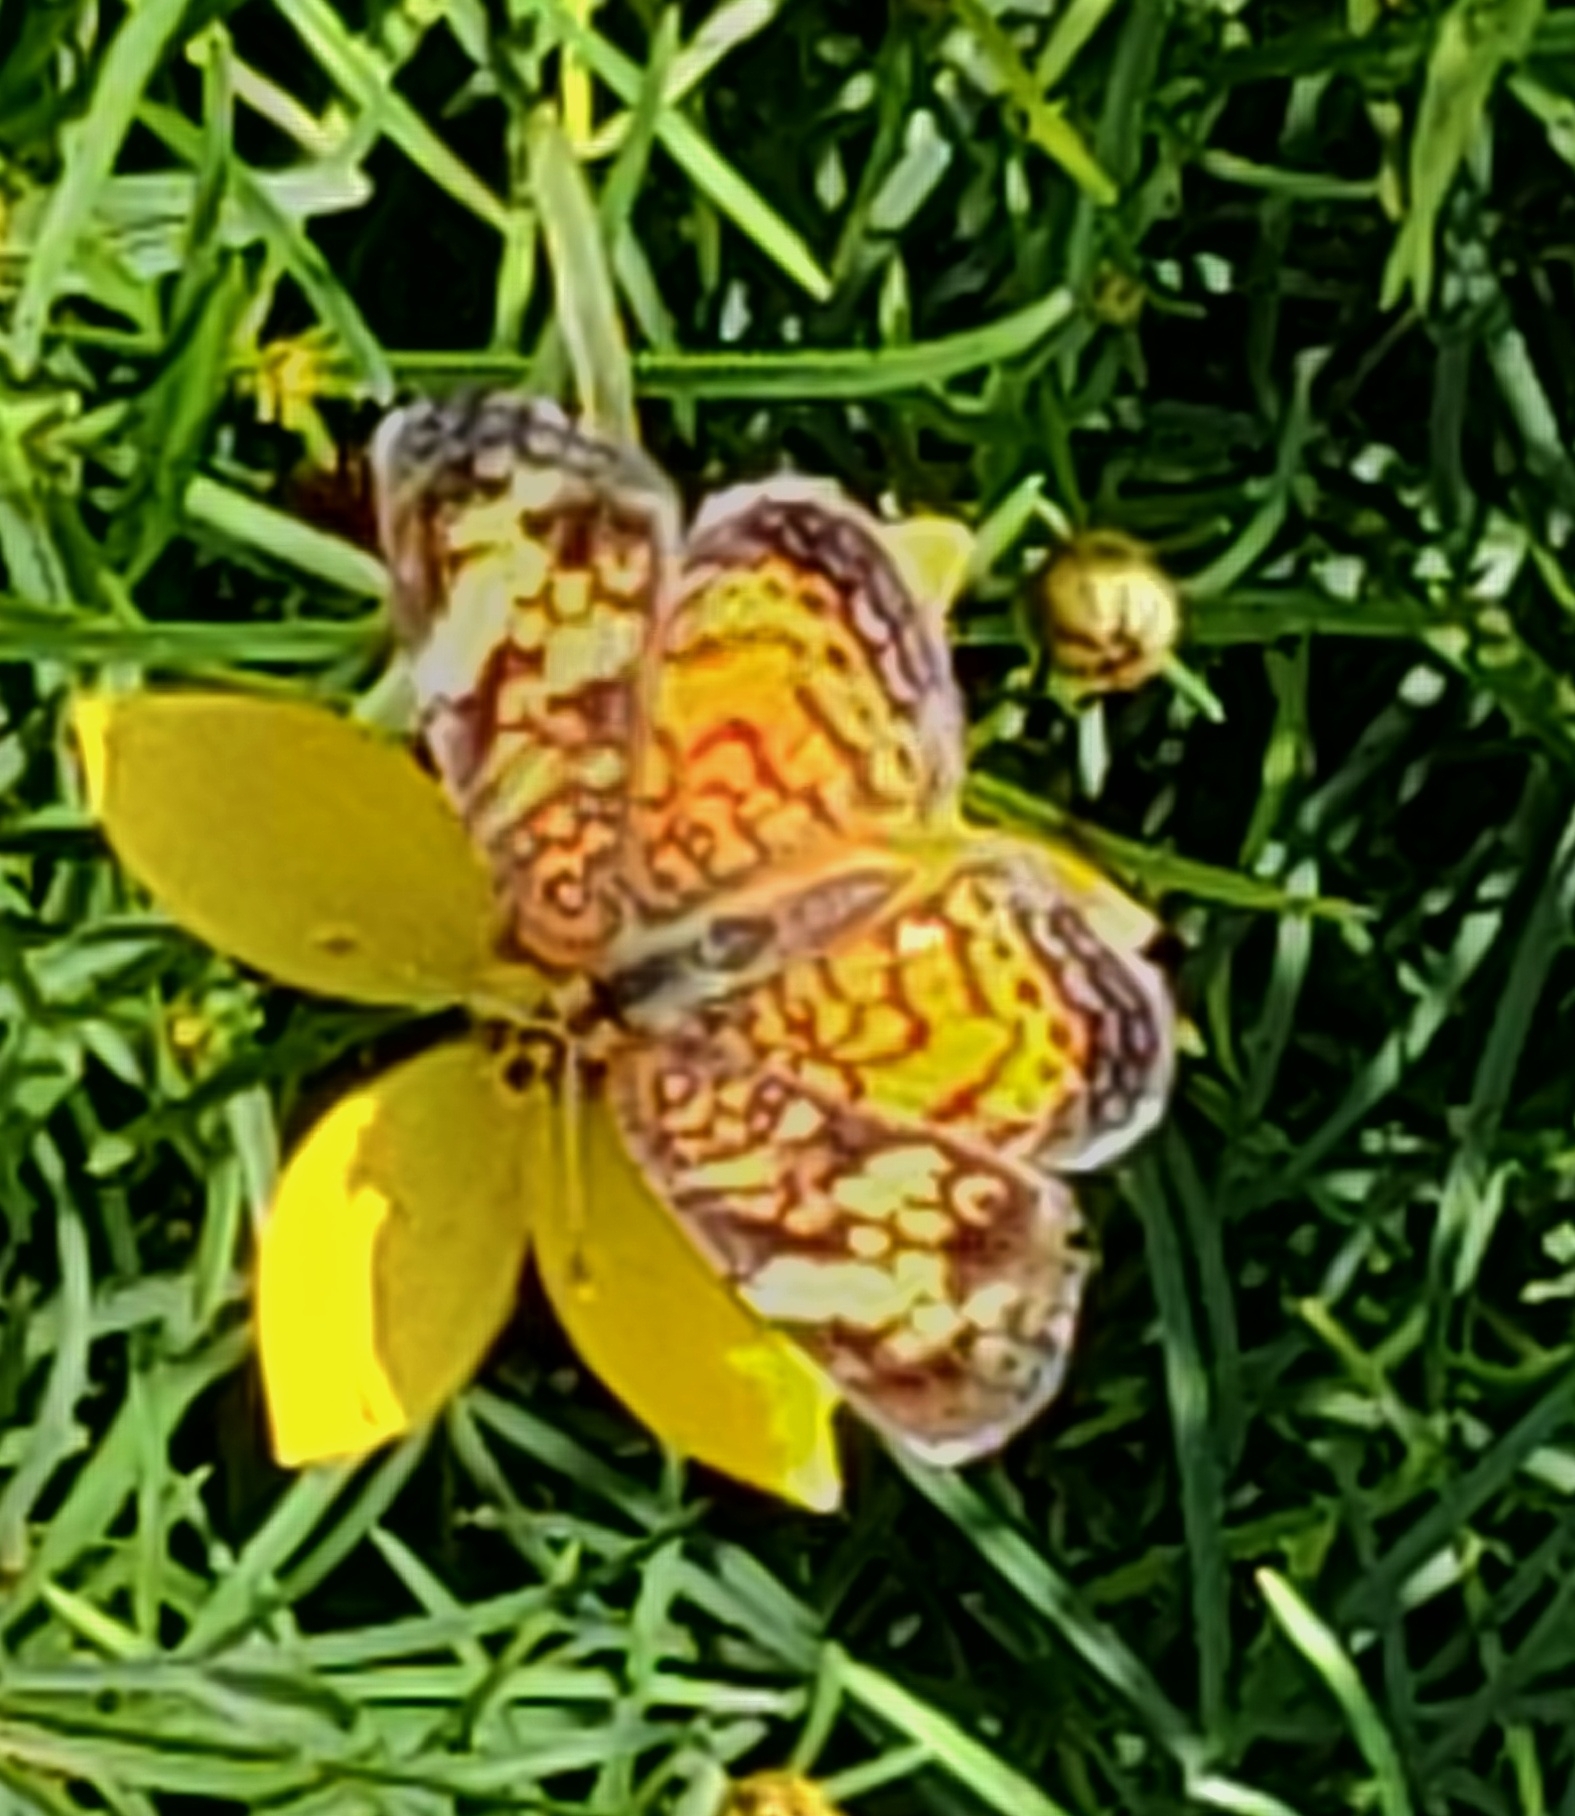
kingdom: Animalia
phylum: Arthropoda
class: Insecta
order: Lepidoptera
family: Nymphalidae
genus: Phyciodes
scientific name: Phyciodes tharos
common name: Pearl crescent
